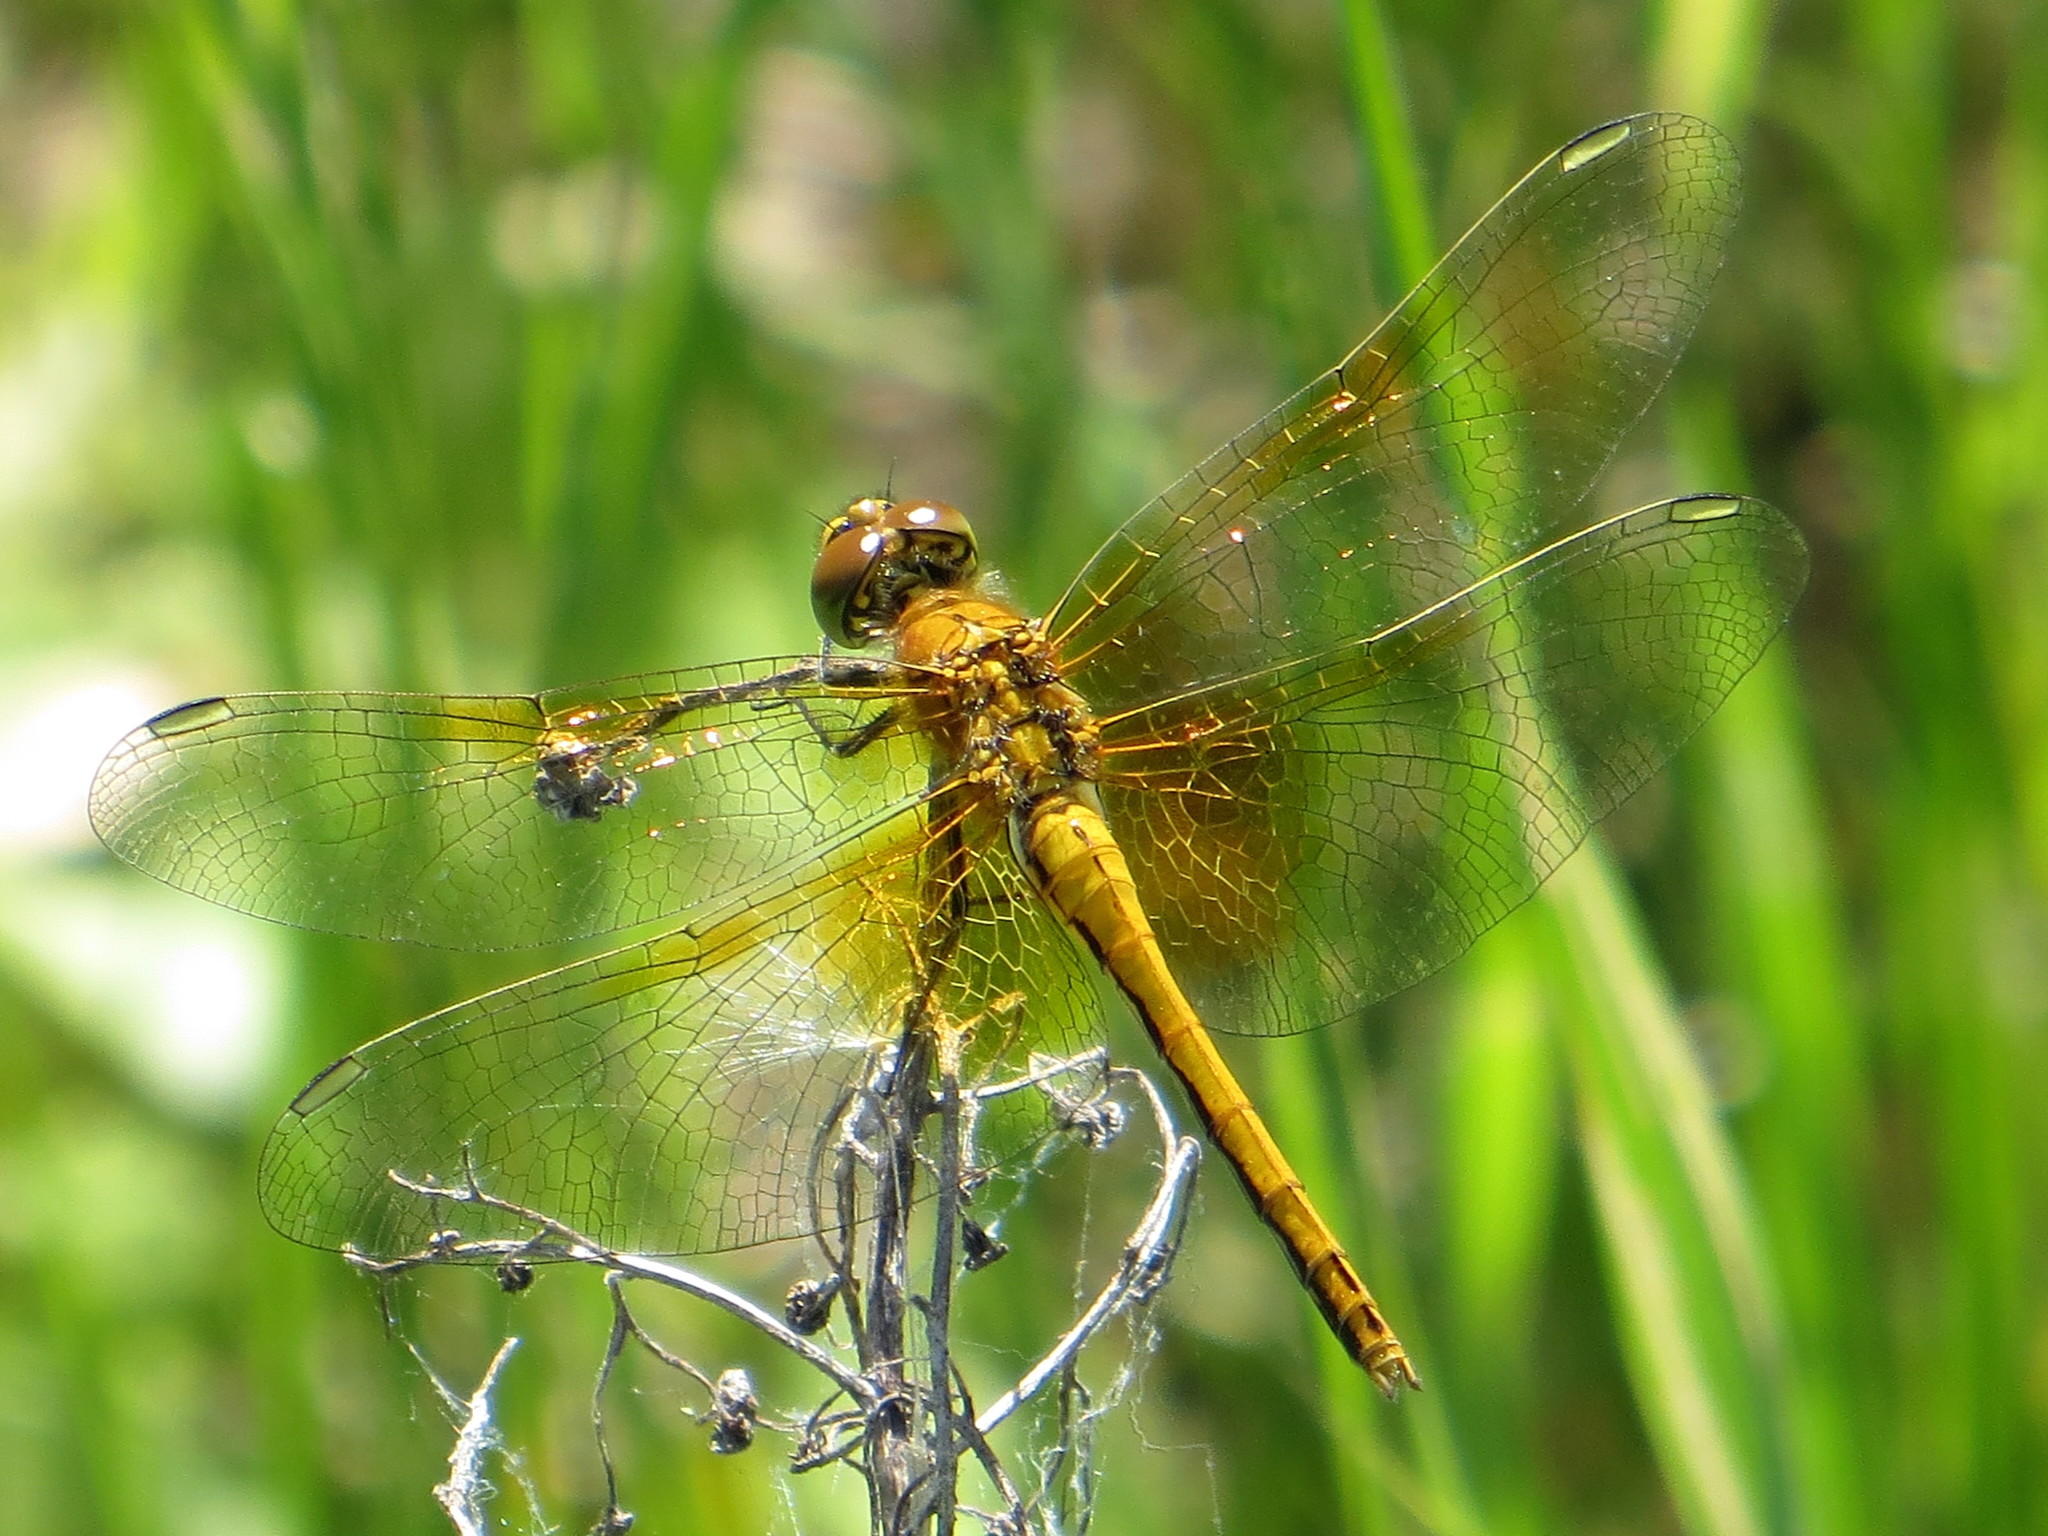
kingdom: Animalia
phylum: Arthropoda
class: Insecta
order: Odonata
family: Libellulidae
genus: Sympetrum
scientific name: Sympetrum flaveolum
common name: Yellow-winged darter
